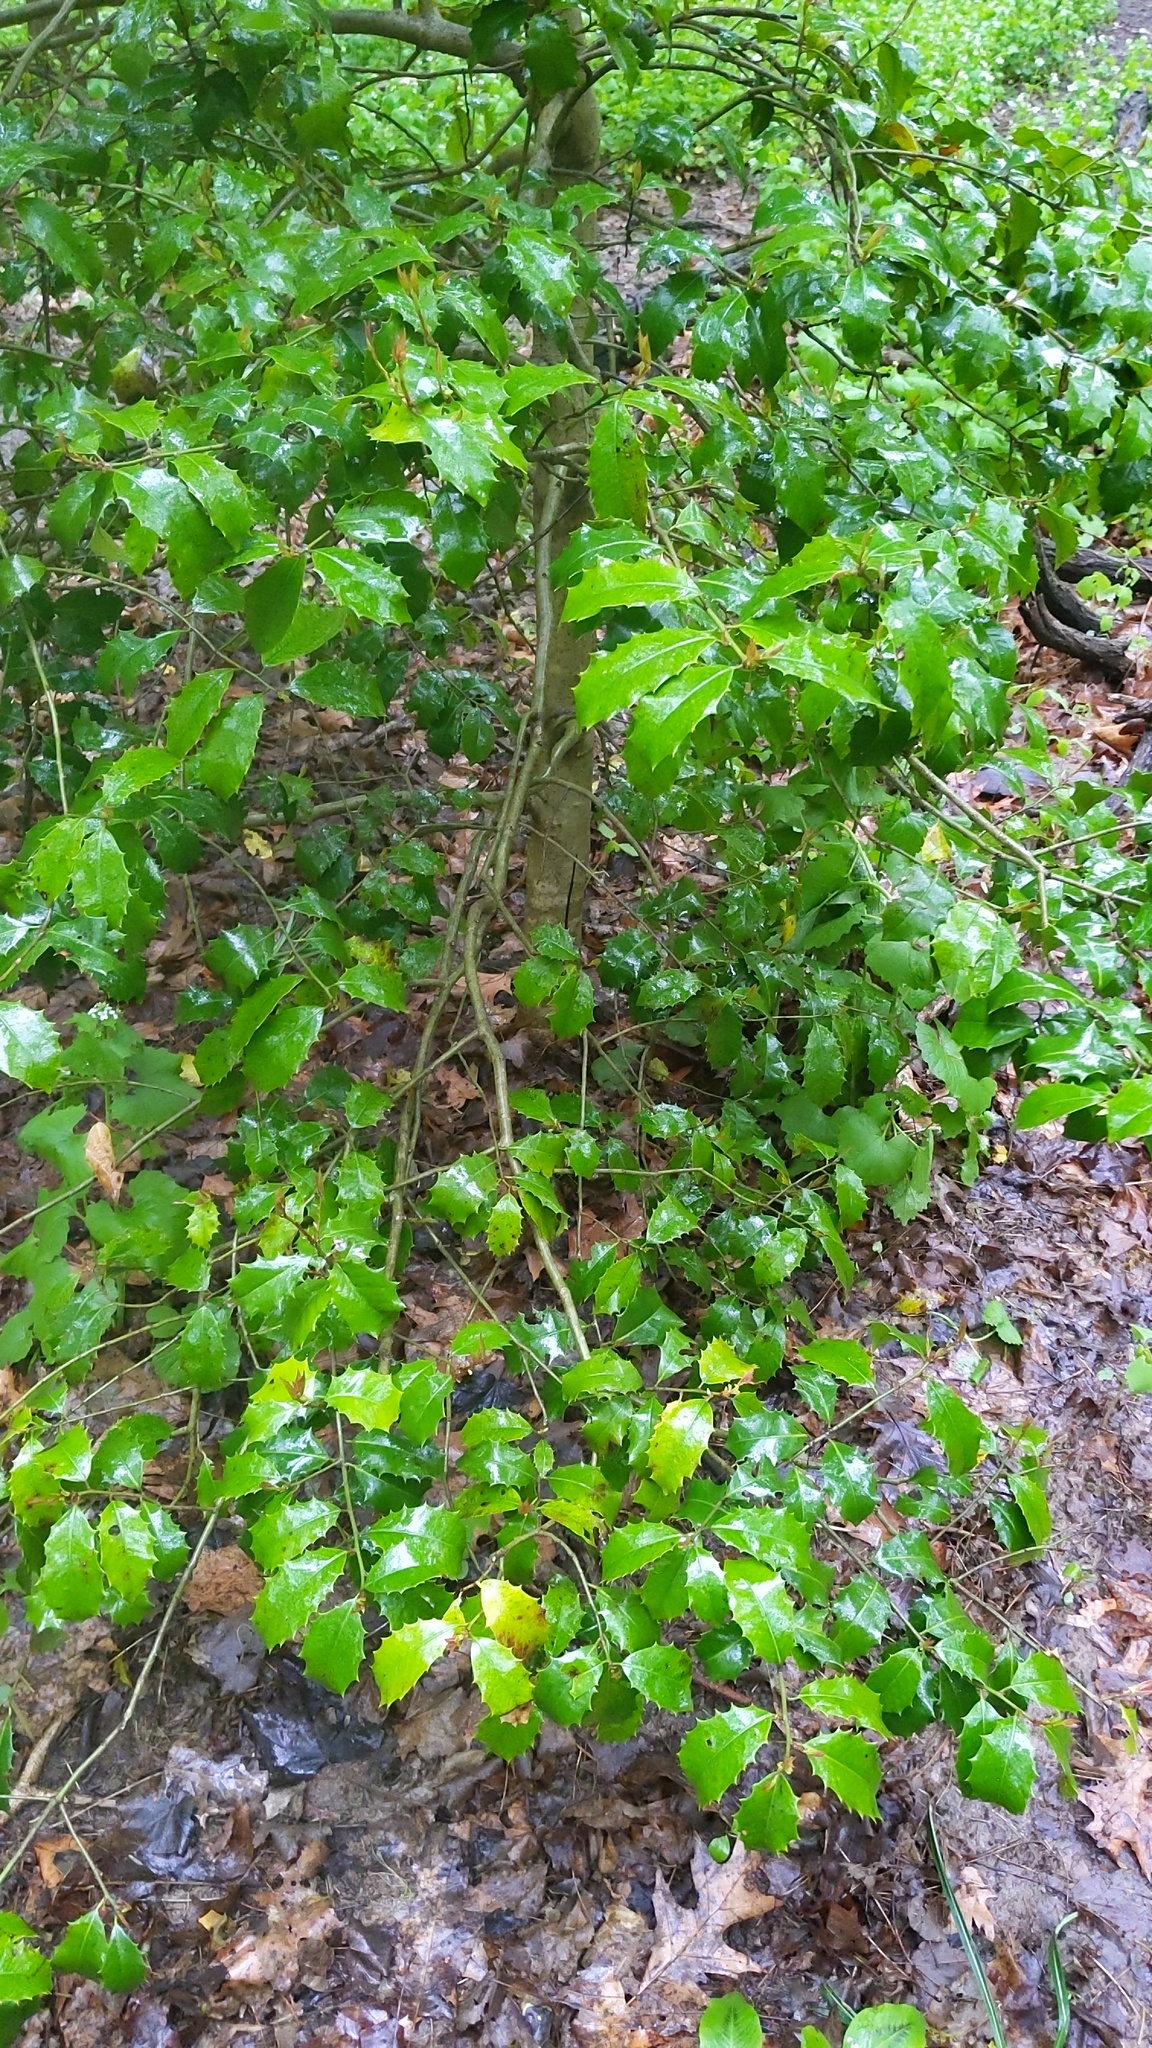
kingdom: Plantae
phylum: Tracheophyta
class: Magnoliopsida
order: Aquifoliales
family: Aquifoliaceae
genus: Ilex
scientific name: Ilex opaca
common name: American holly
